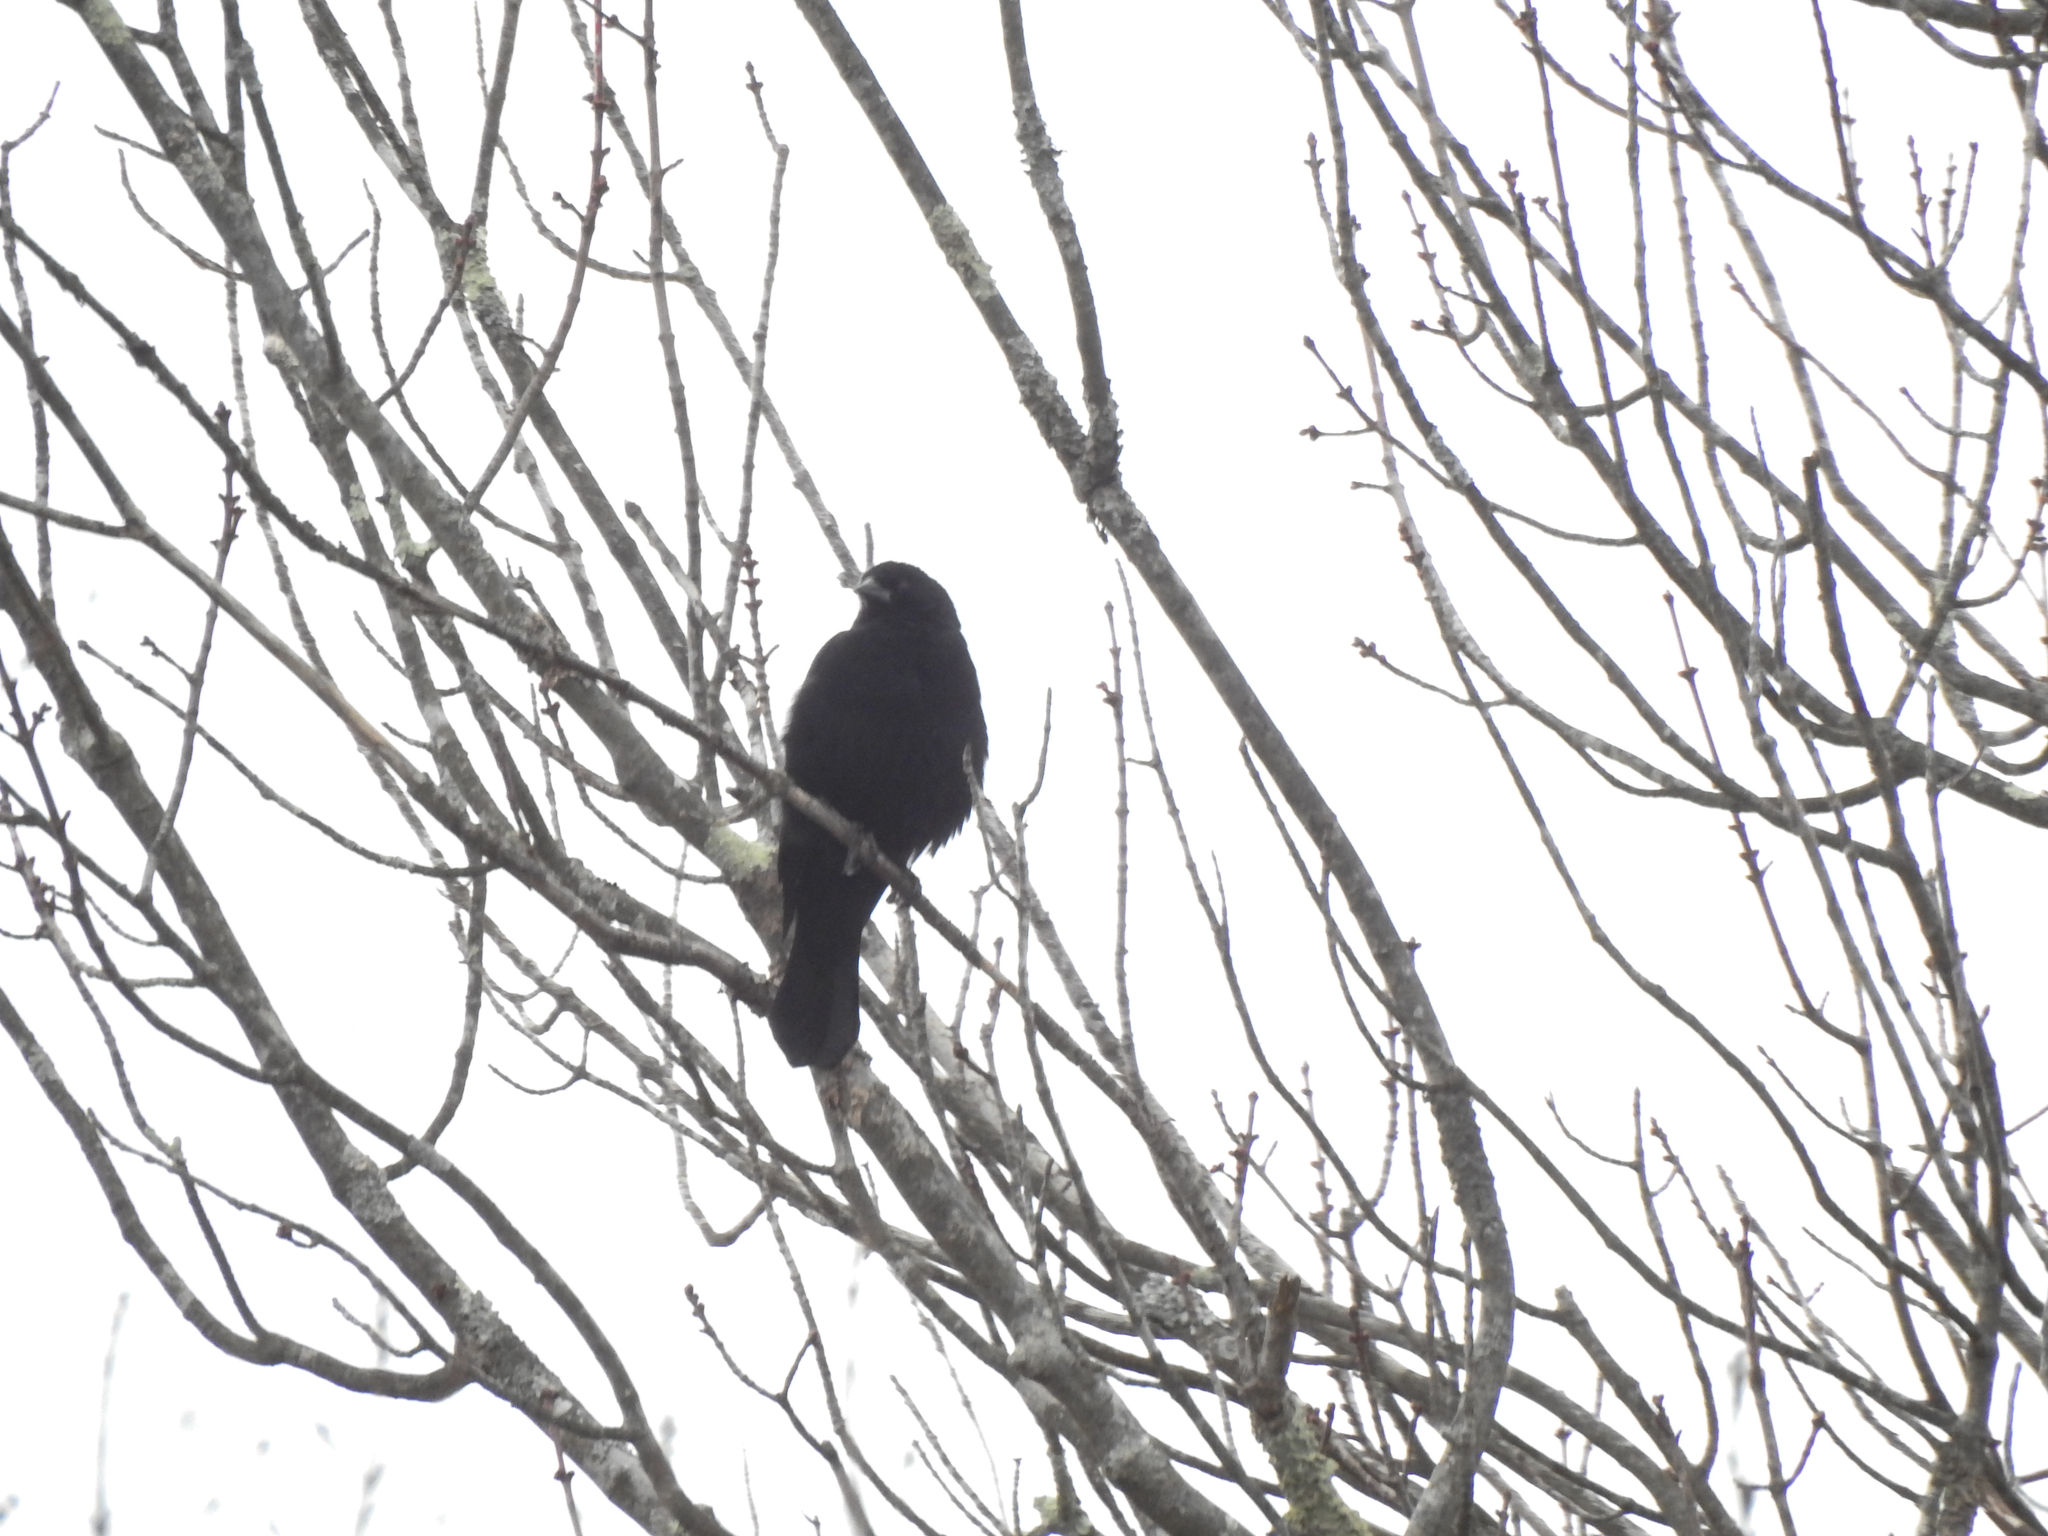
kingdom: Animalia
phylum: Chordata
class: Aves
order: Passeriformes
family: Icteridae
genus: Agelaius
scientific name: Agelaius phoeniceus
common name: Red-winged blackbird
